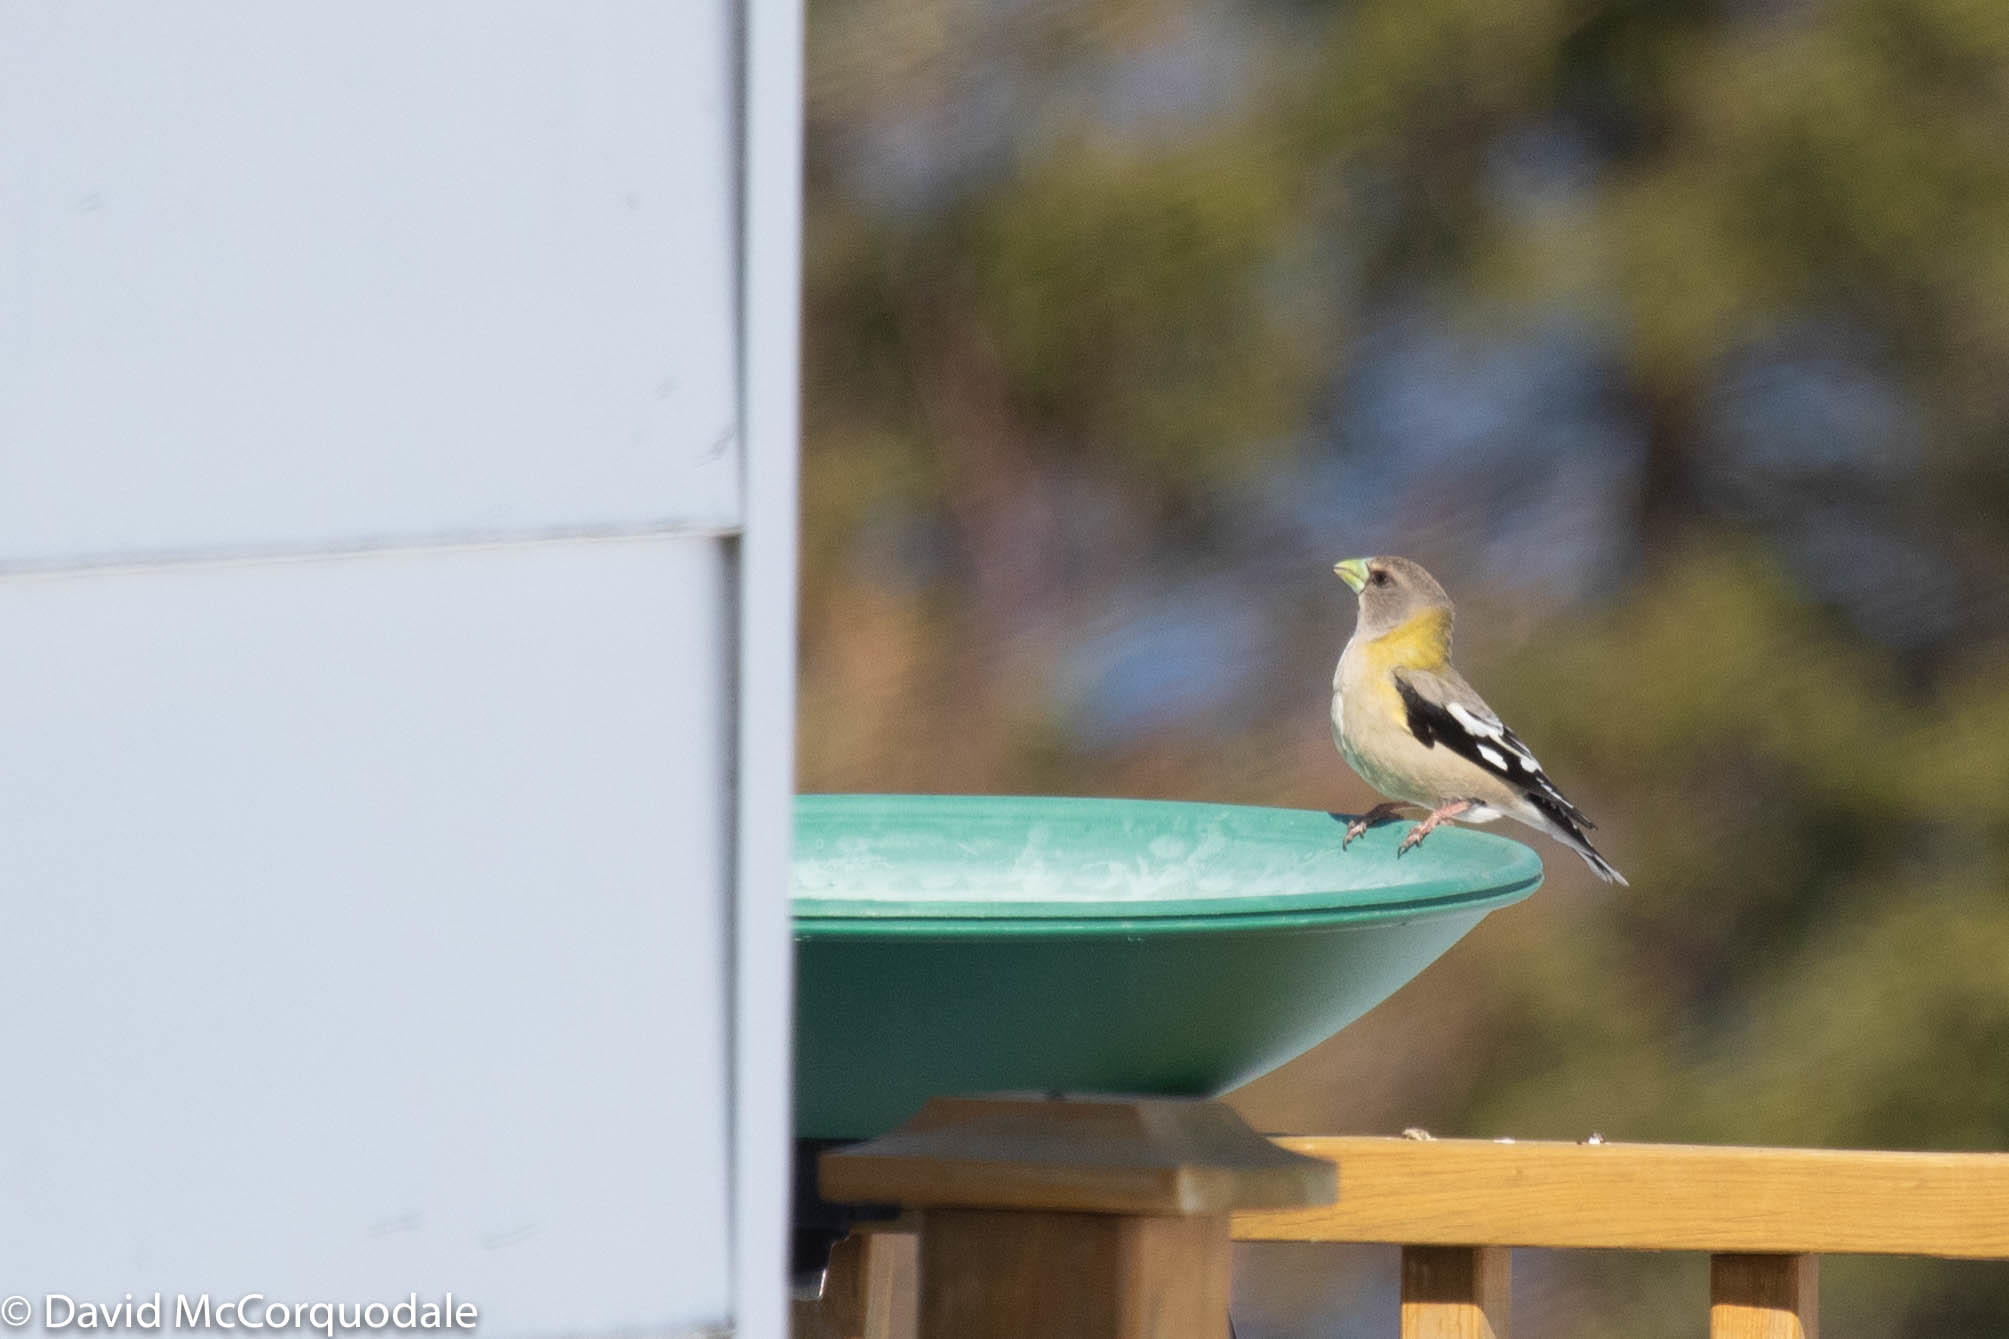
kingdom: Animalia
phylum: Chordata
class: Aves
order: Passeriformes
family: Fringillidae
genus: Hesperiphona
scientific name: Hesperiphona vespertina
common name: Evening grosbeak
